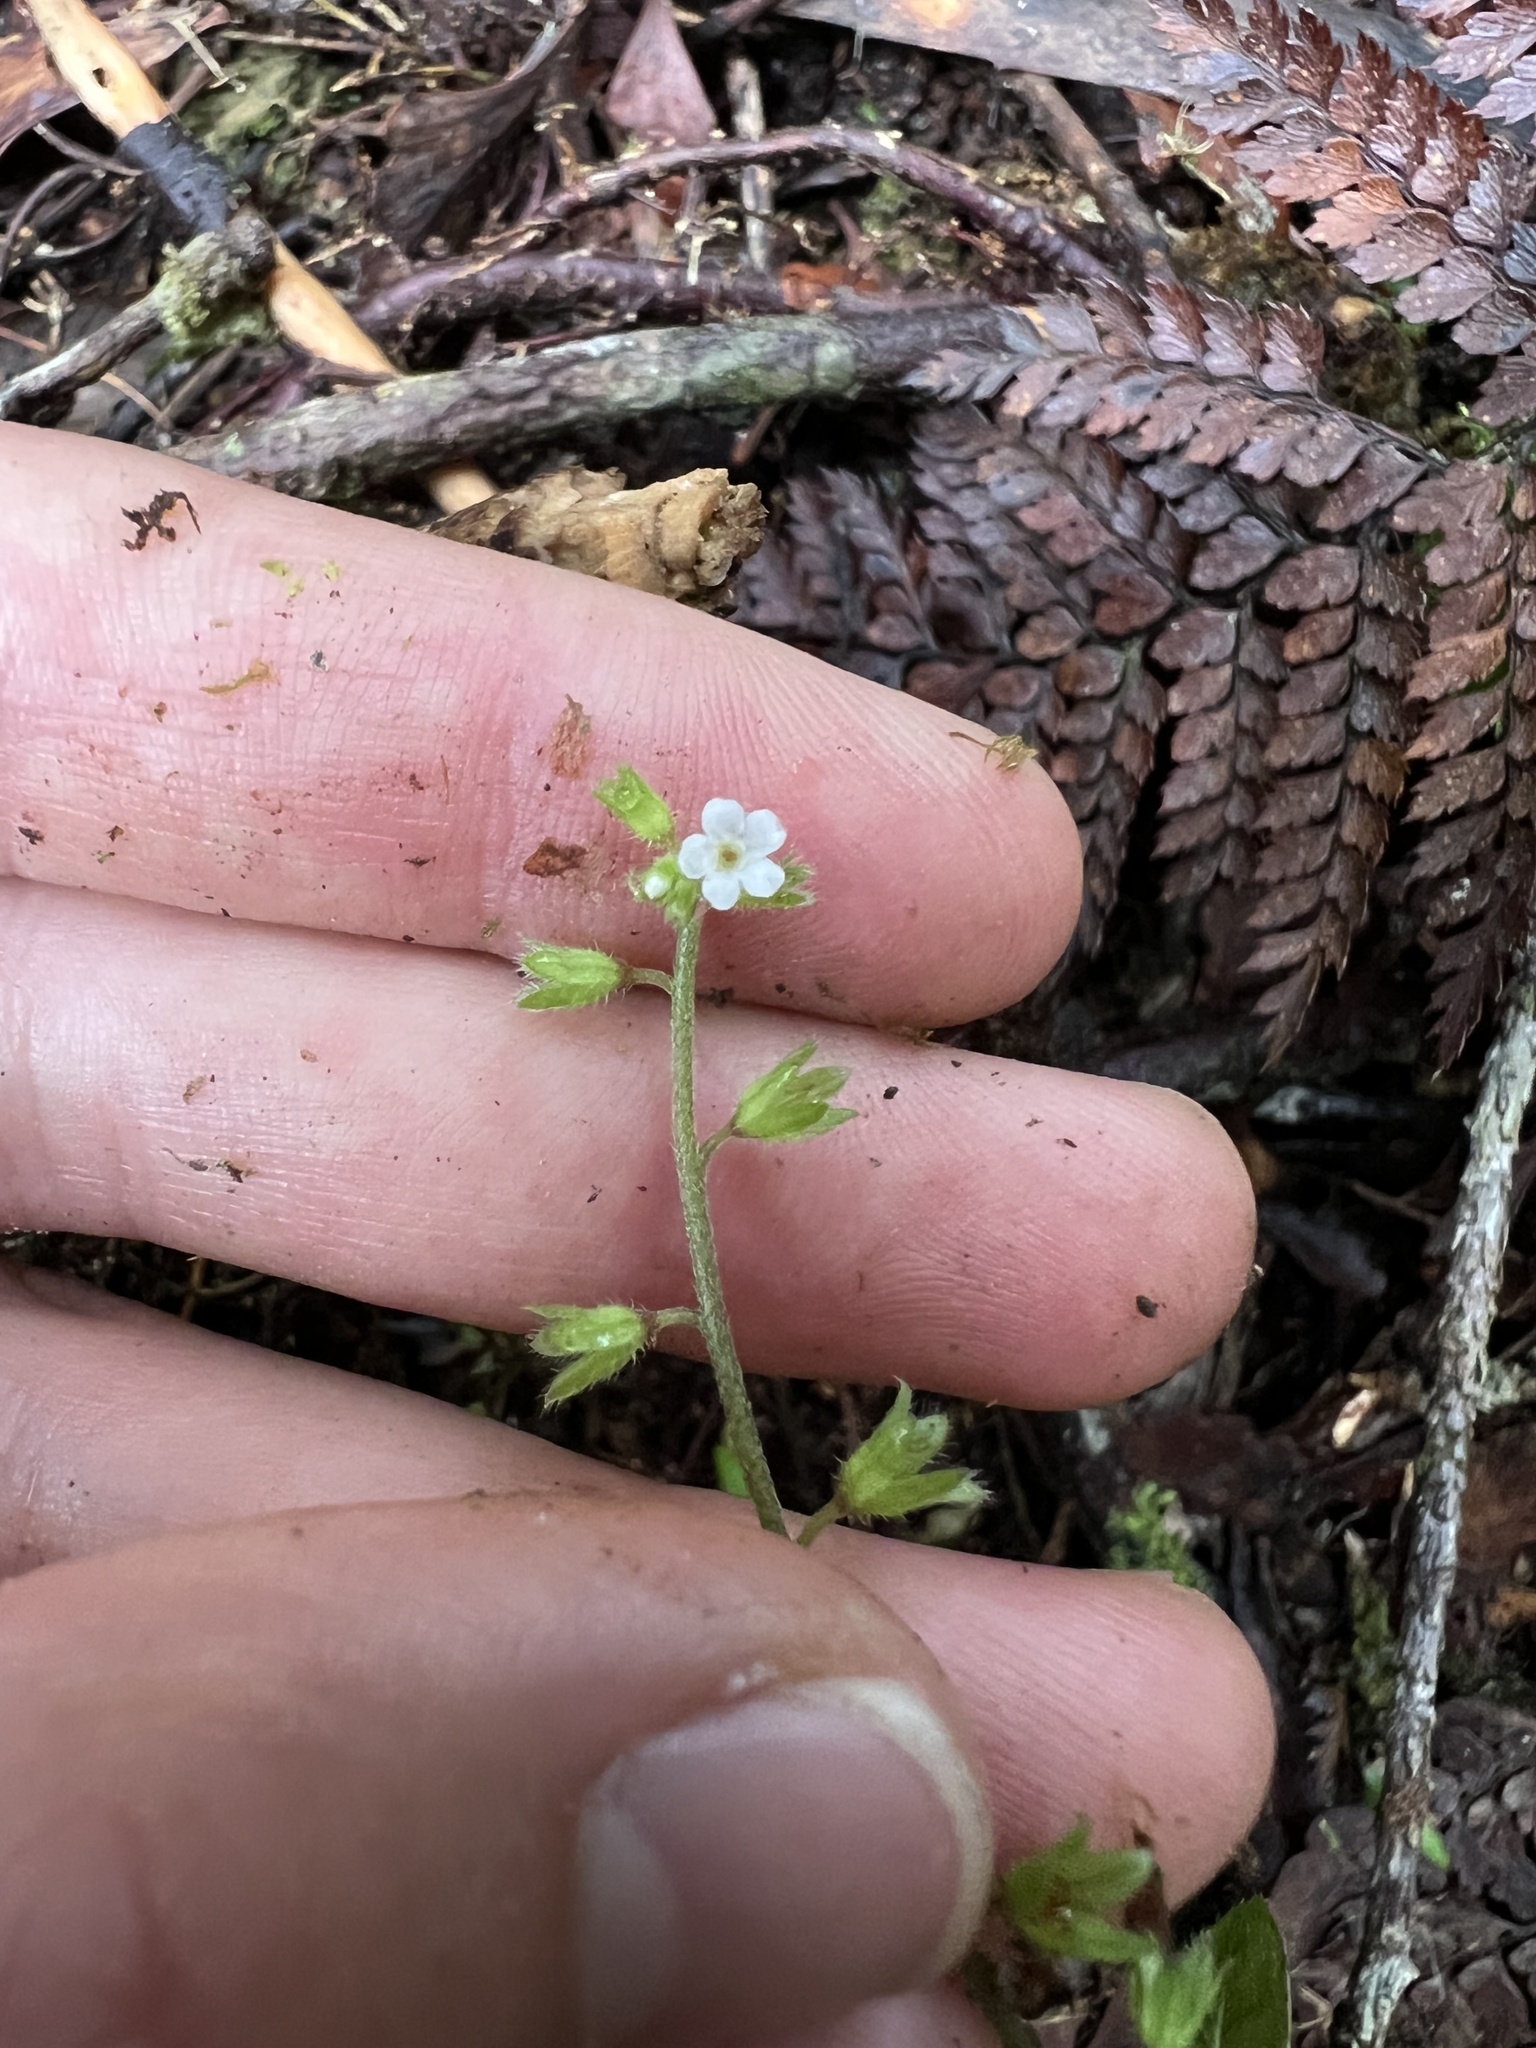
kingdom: Plantae
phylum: Tracheophyta
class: Magnoliopsida
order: Boraginales
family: Boraginaceae
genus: Myosotis
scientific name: Myosotis forsteri
